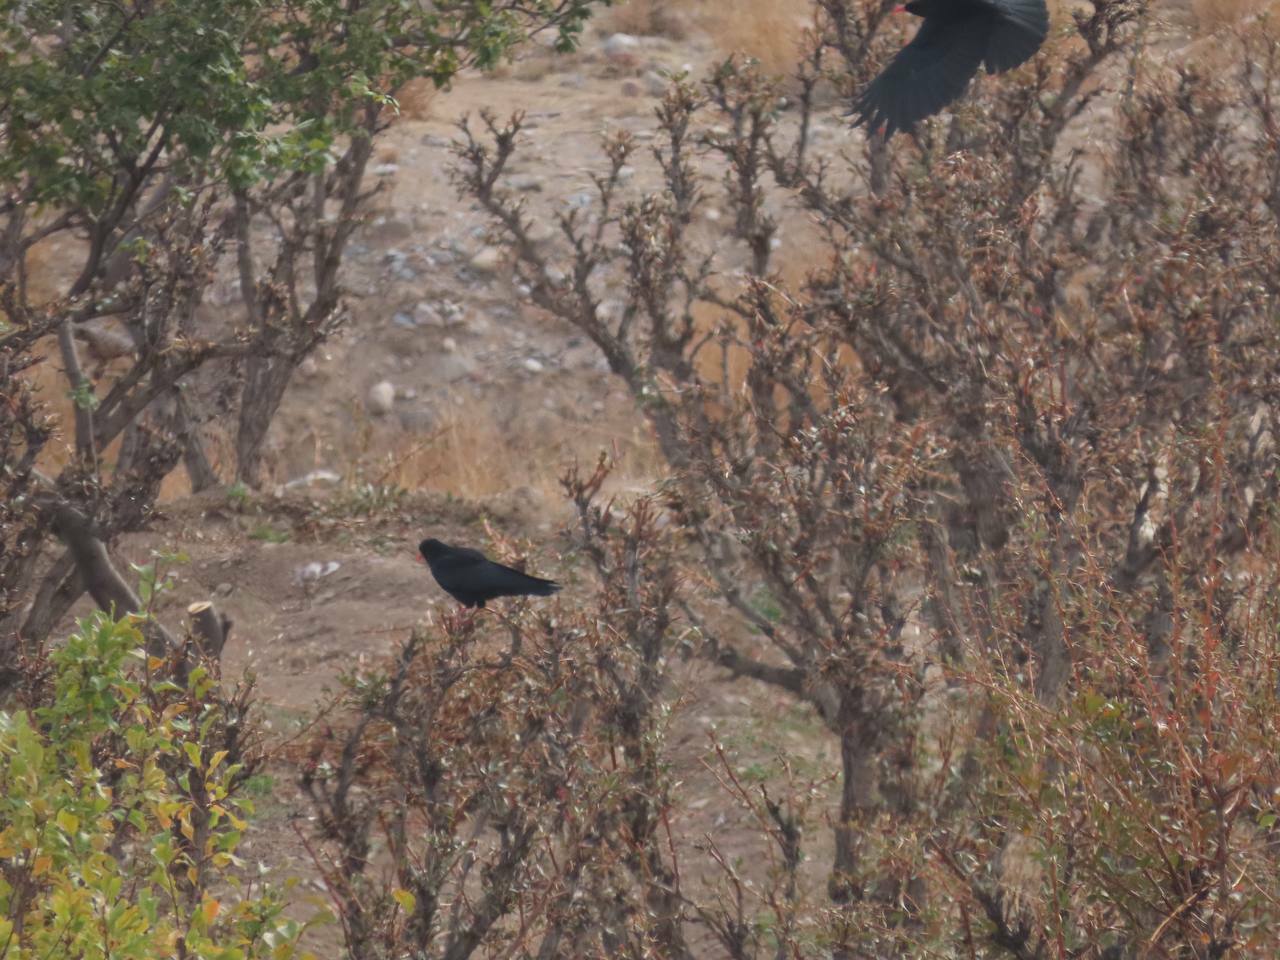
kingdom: Animalia
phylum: Chordata
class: Aves
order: Passeriformes
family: Corvidae
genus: Pyrrhocorax
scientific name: Pyrrhocorax pyrrhocorax
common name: Red-billed chough
